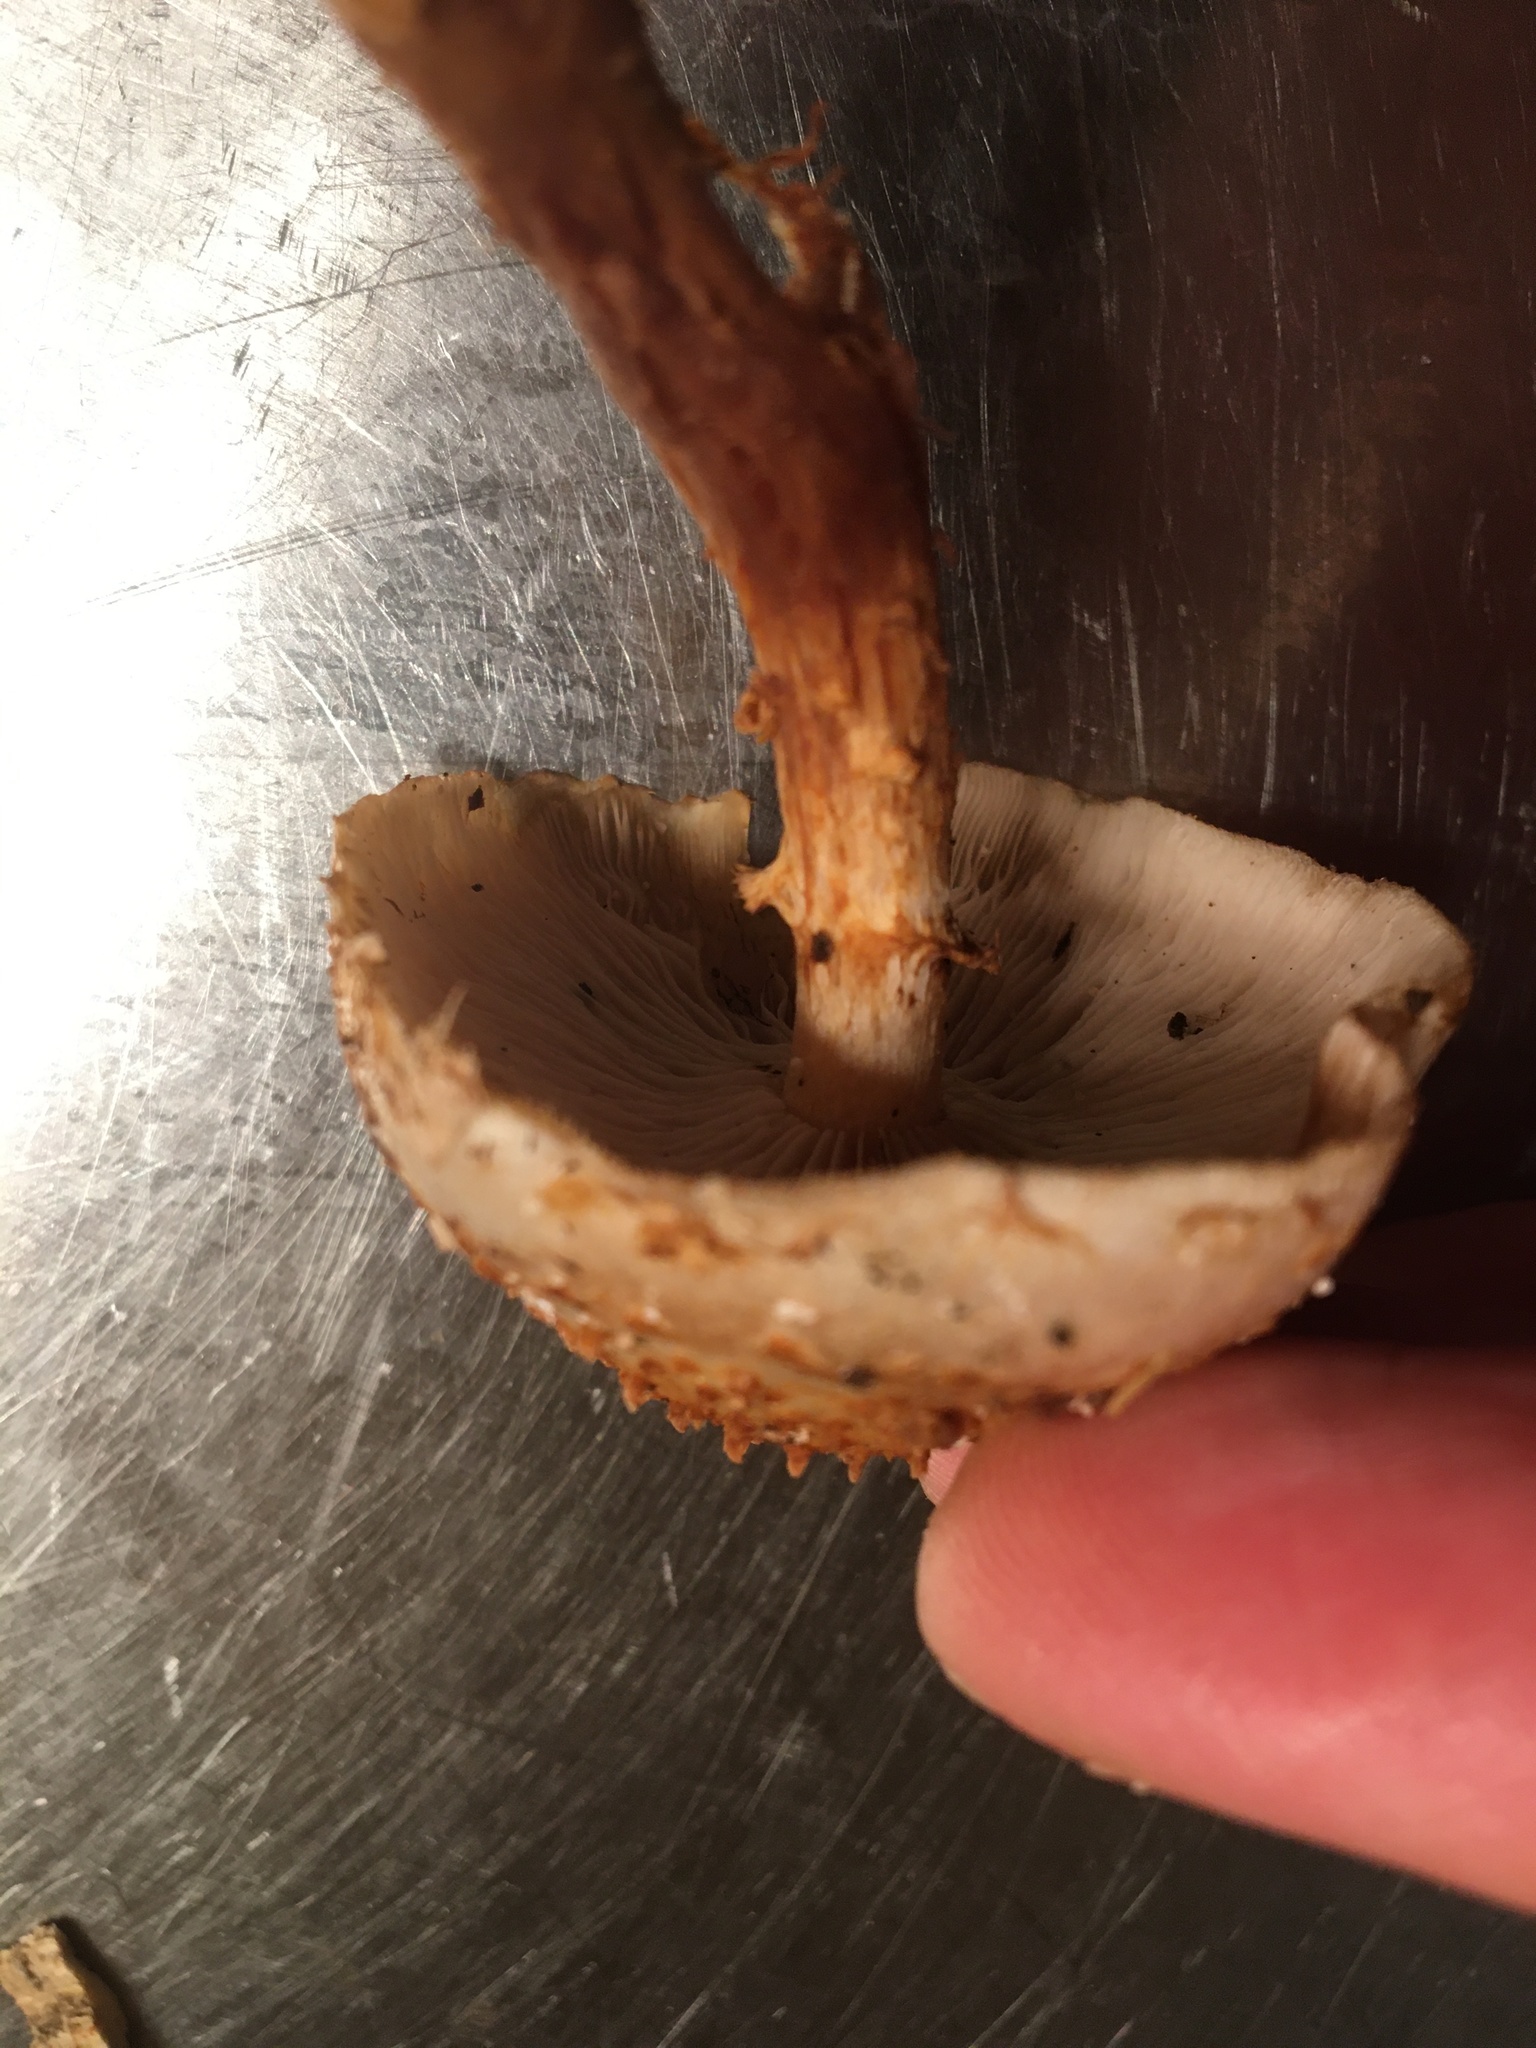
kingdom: Fungi
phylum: Basidiomycota
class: Agaricomycetes
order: Agaricales
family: Strophariaceae
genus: Pholiota
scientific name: Pholiota squarrosoides
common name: Sharp-scaly pholiota
